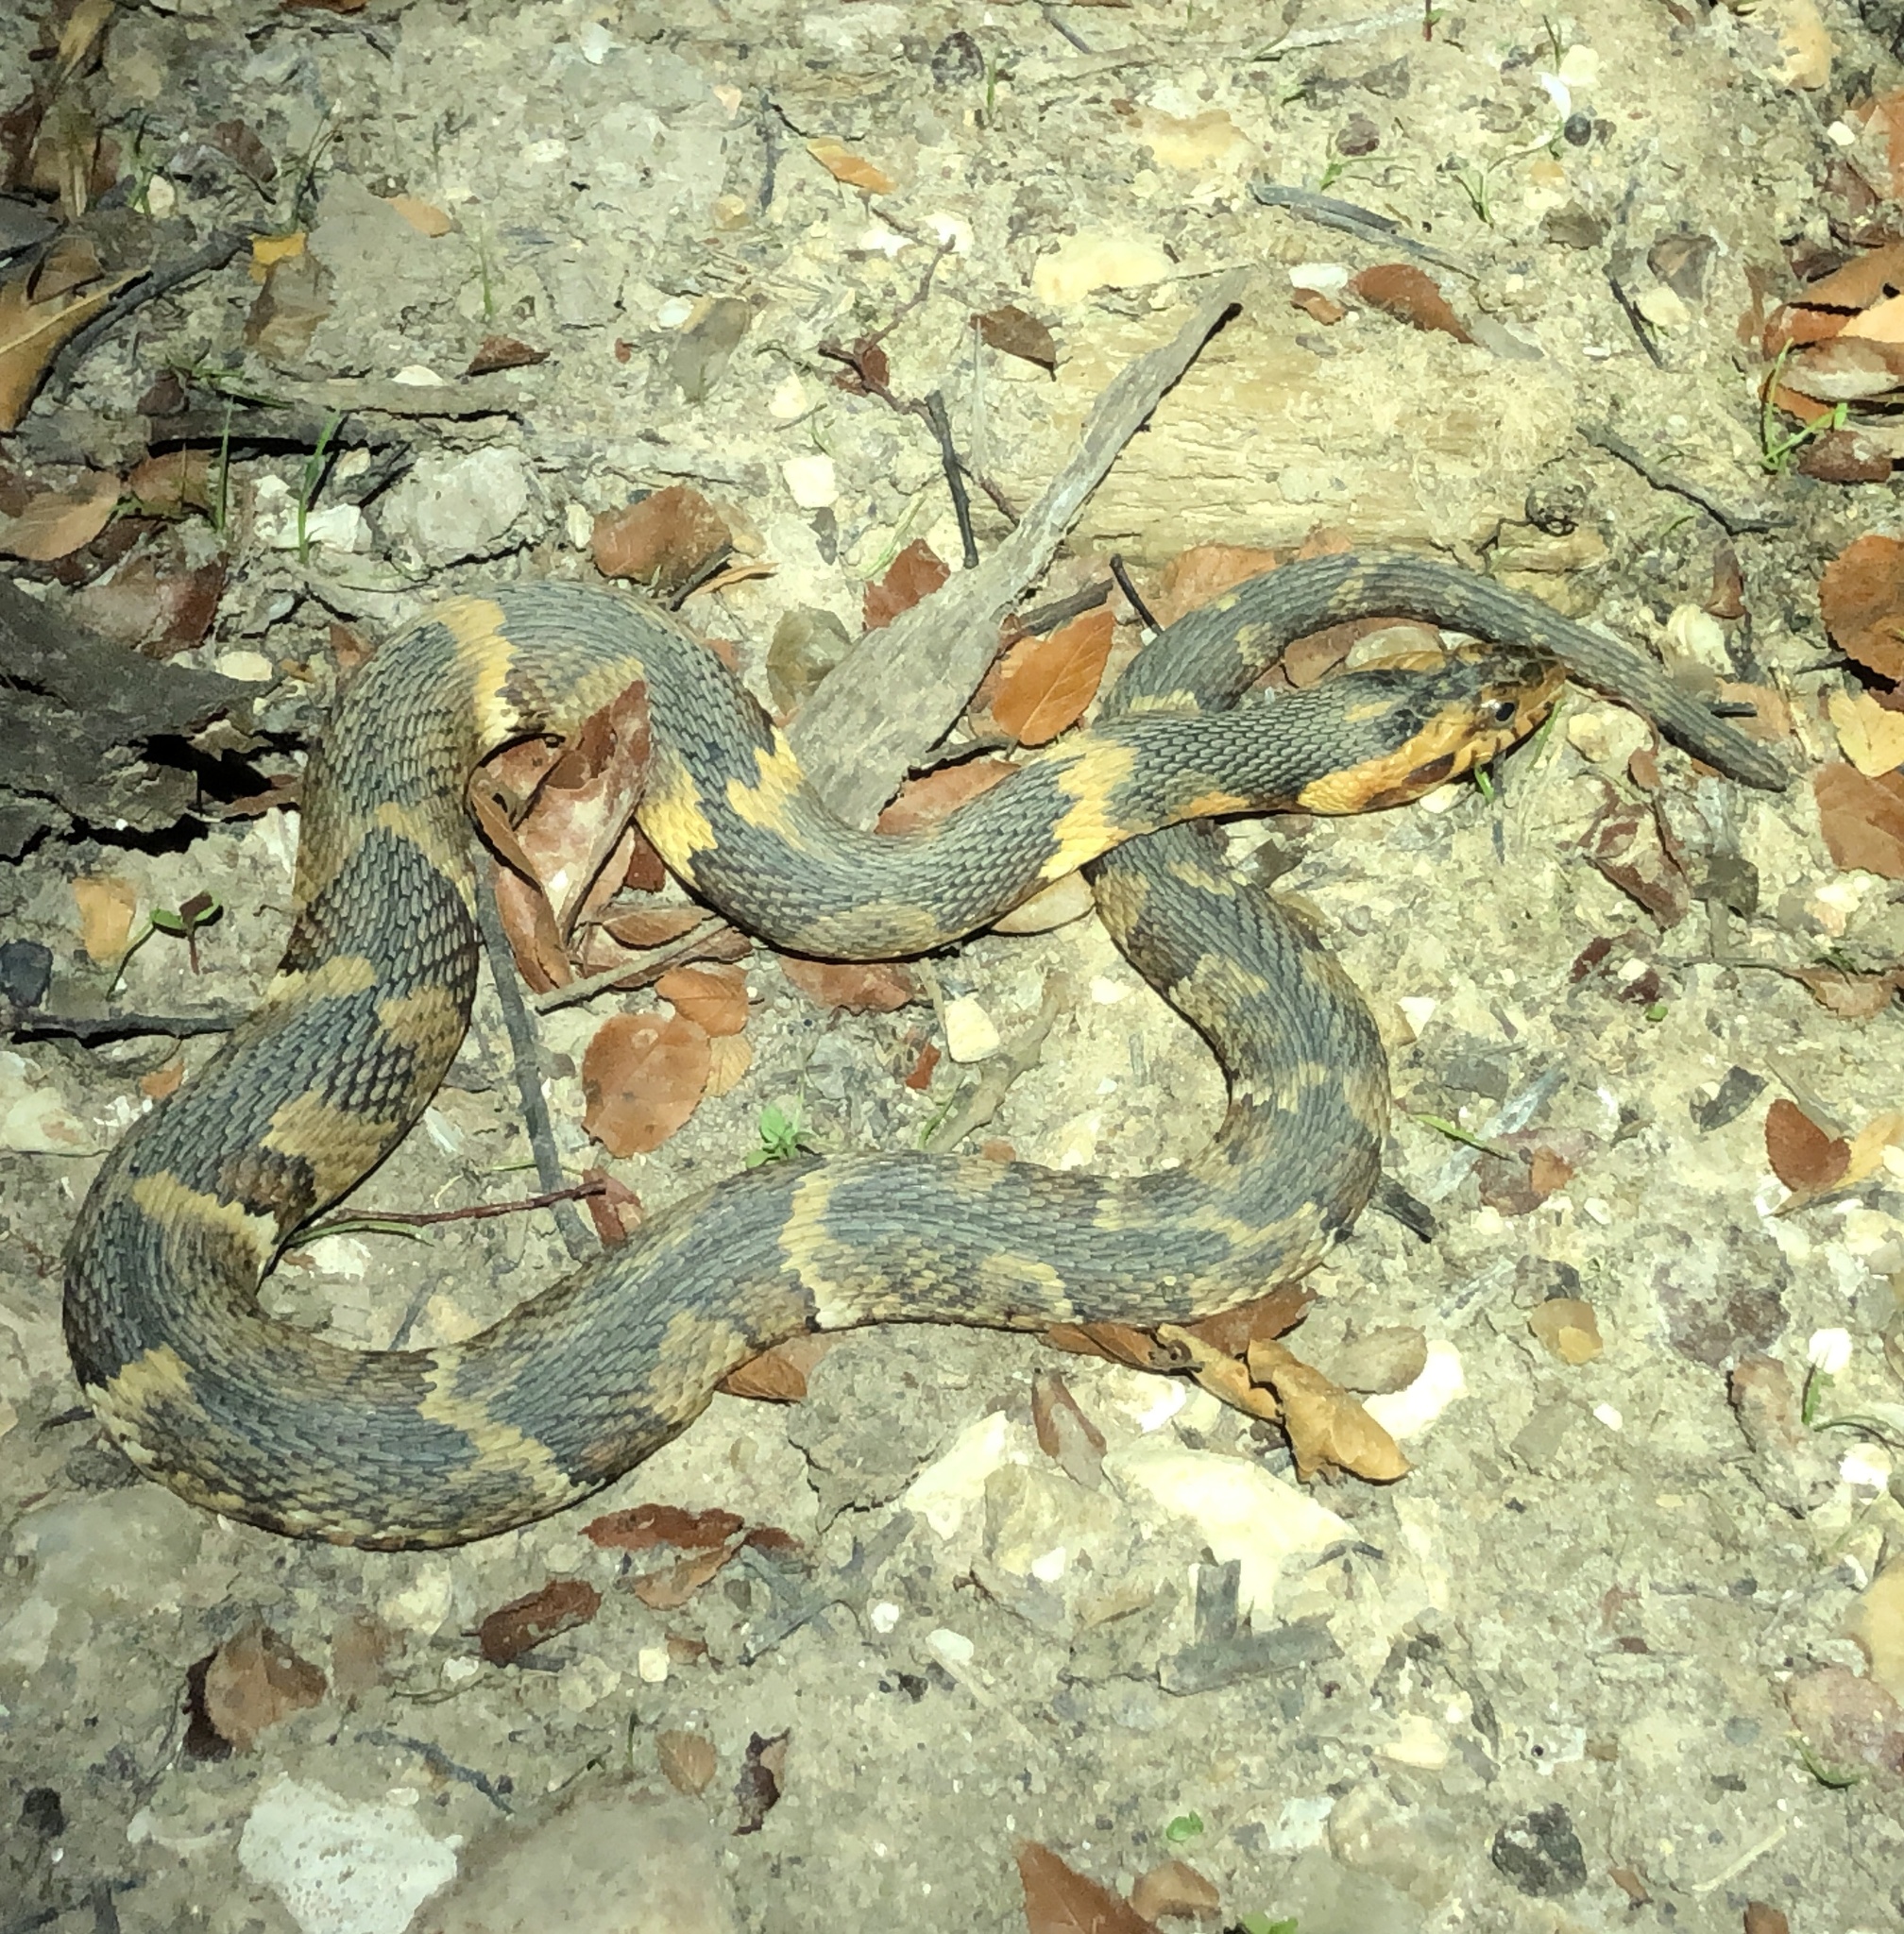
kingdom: Animalia
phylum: Chordata
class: Squamata
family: Colubridae
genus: Nerodia
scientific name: Nerodia fasciata
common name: Southern water snake
